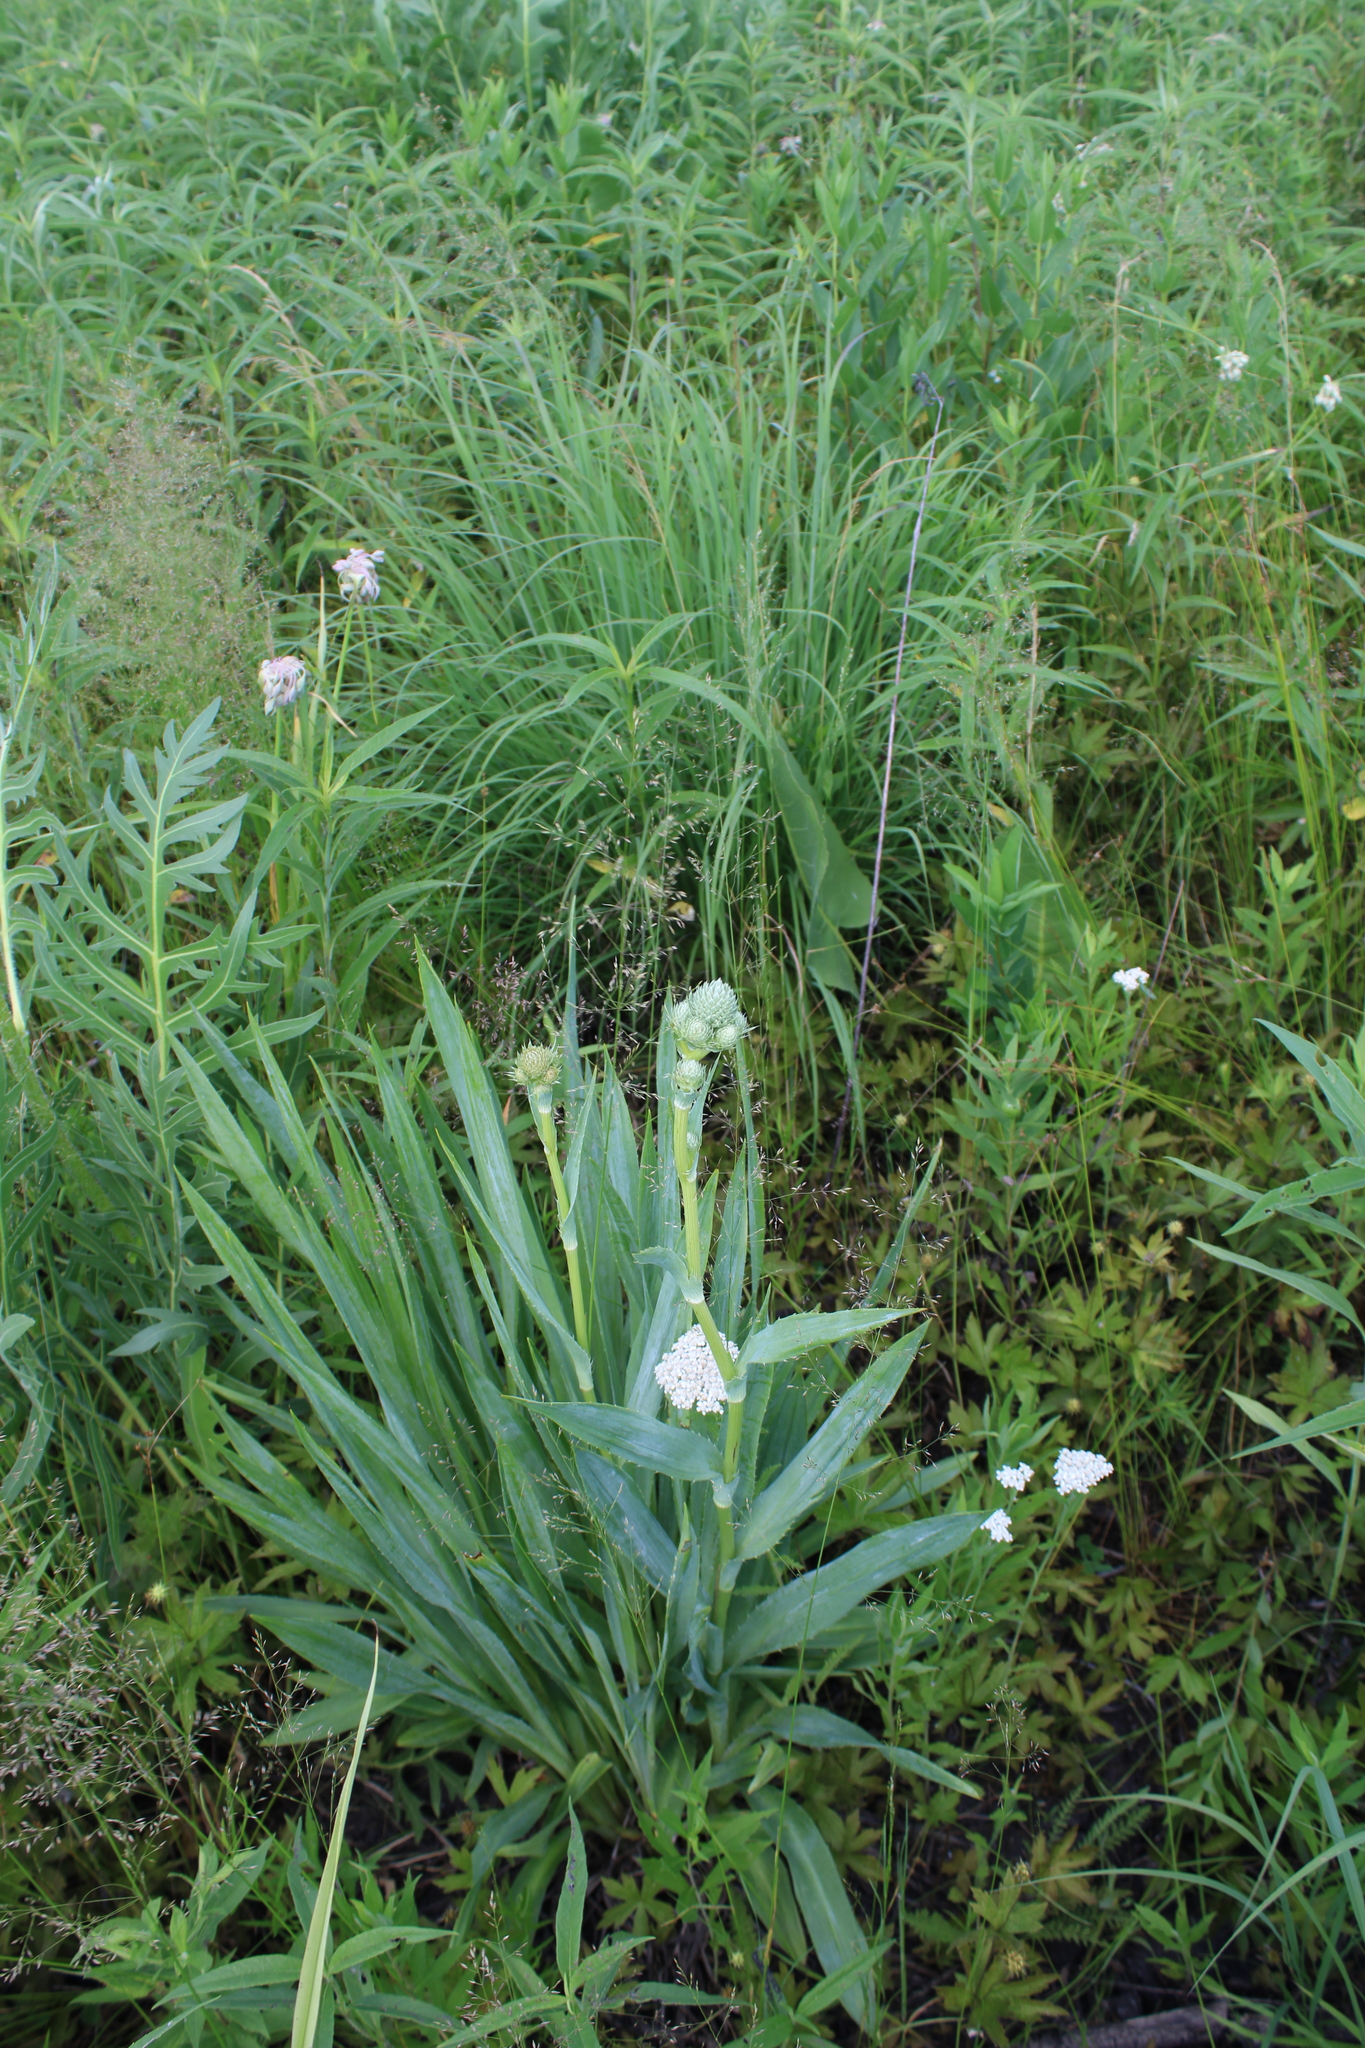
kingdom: Plantae
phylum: Tracheophyta
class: Magnoliopsida
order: Apiales
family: Apiaceae
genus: Eryngium
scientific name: Eryngium yuccifolium
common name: Button eryngo
